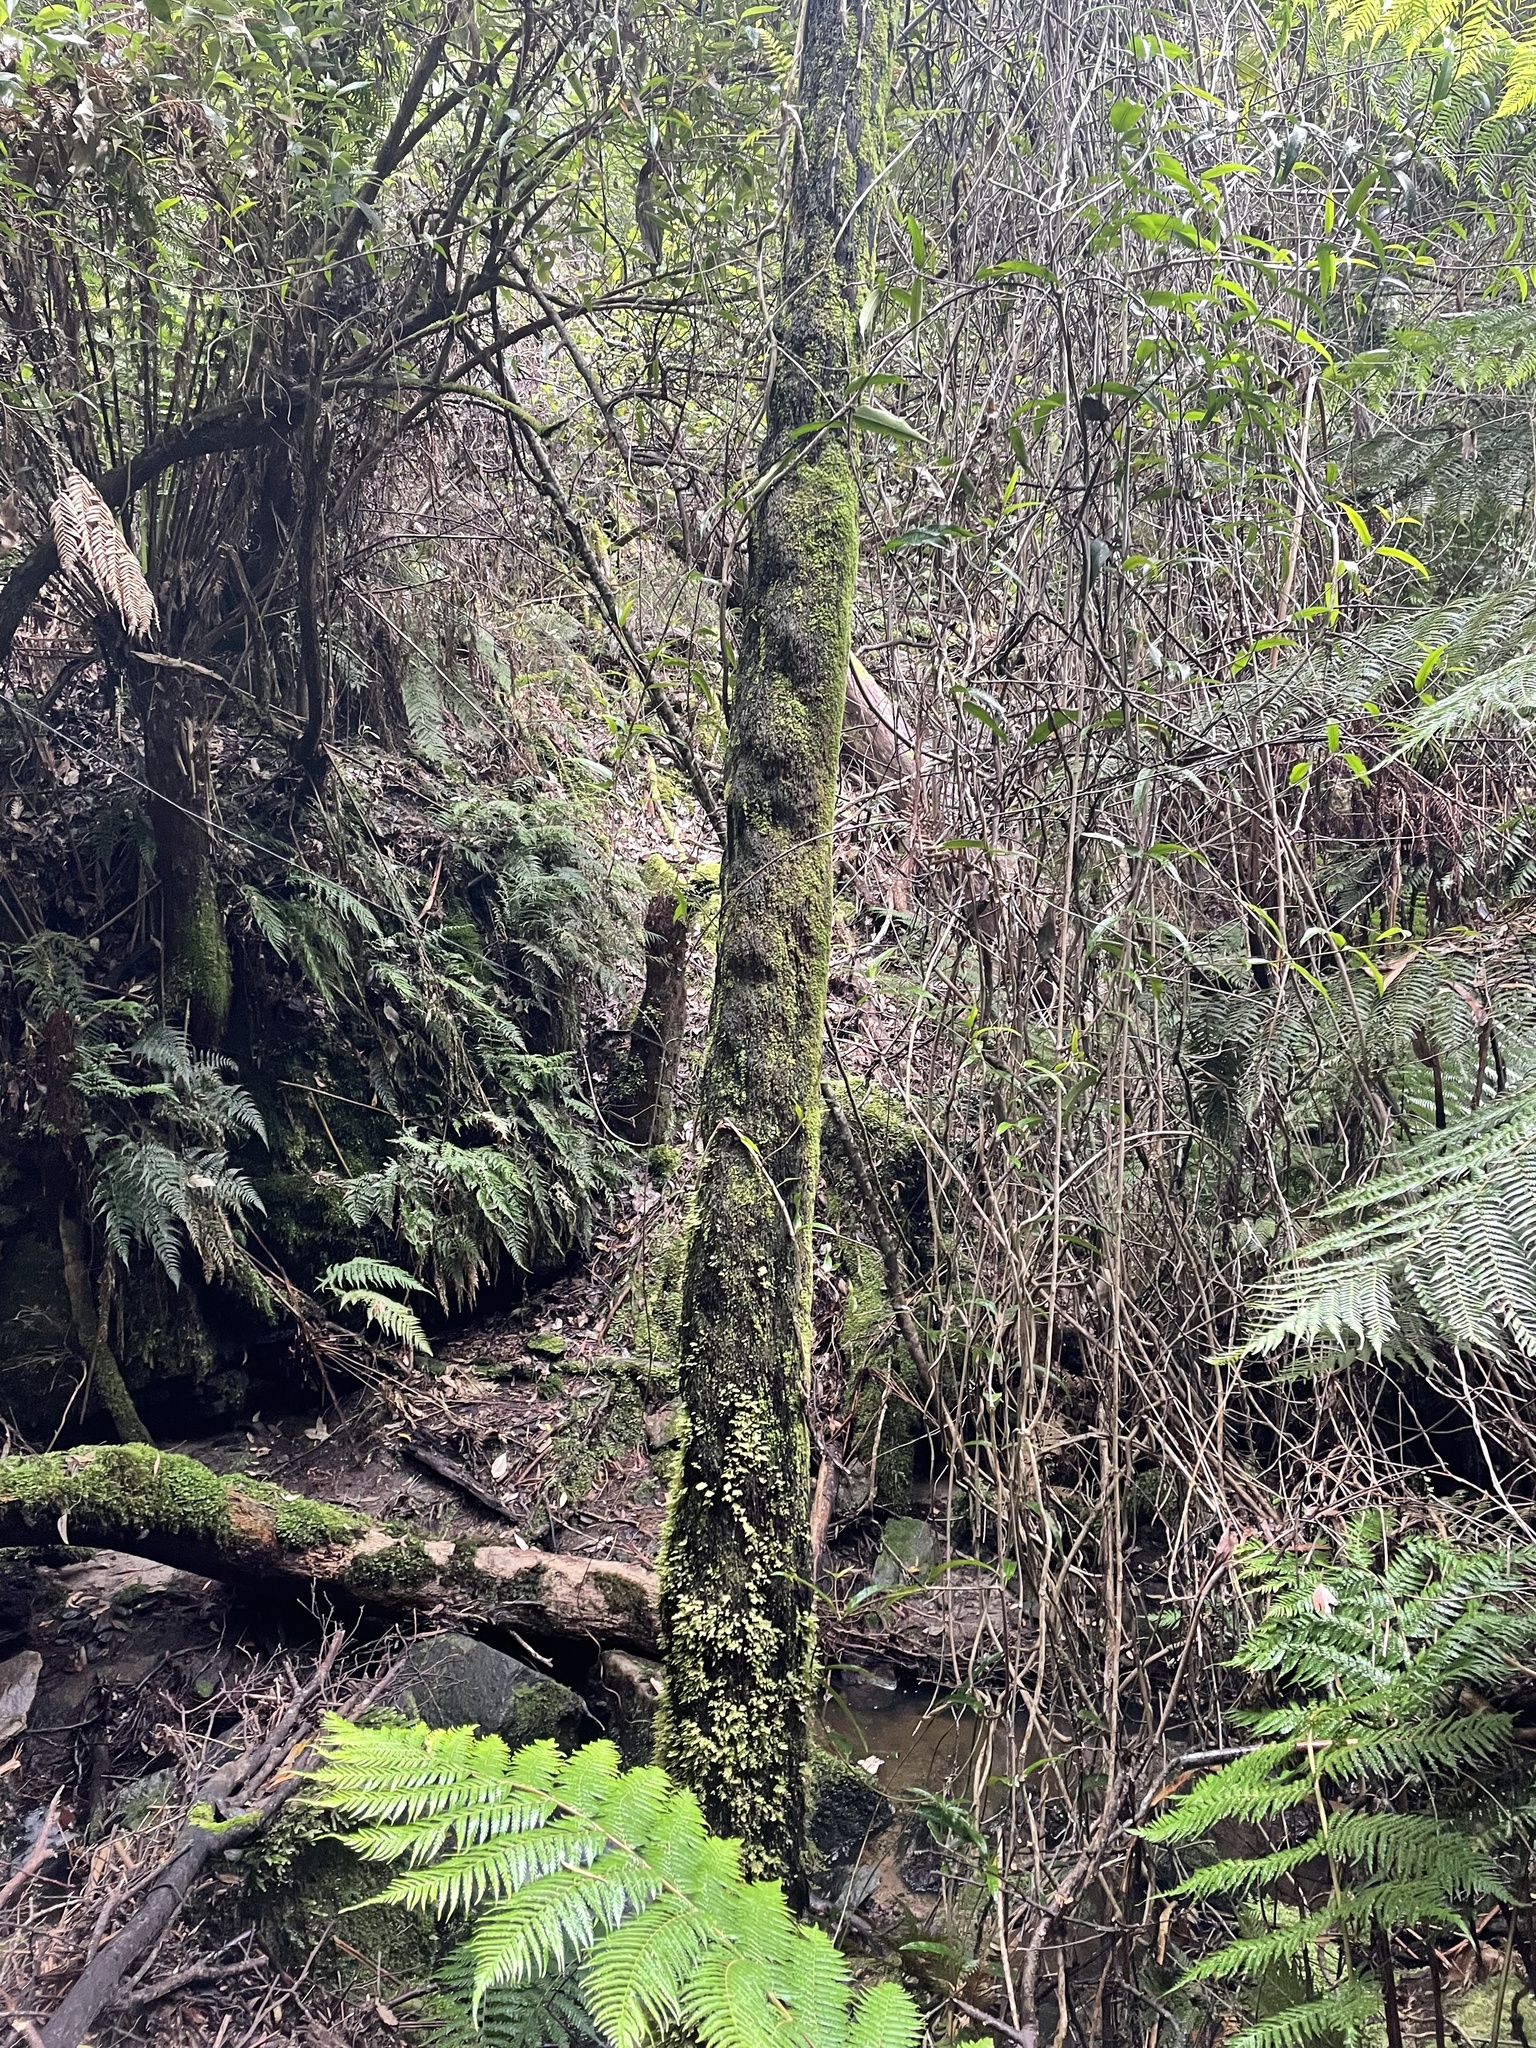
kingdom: Plantae
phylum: Tracheophyta
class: Polypodiopsida
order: Cyatheales
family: Cyatheaceae
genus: Cyathea
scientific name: Cyathea cunninghamii
